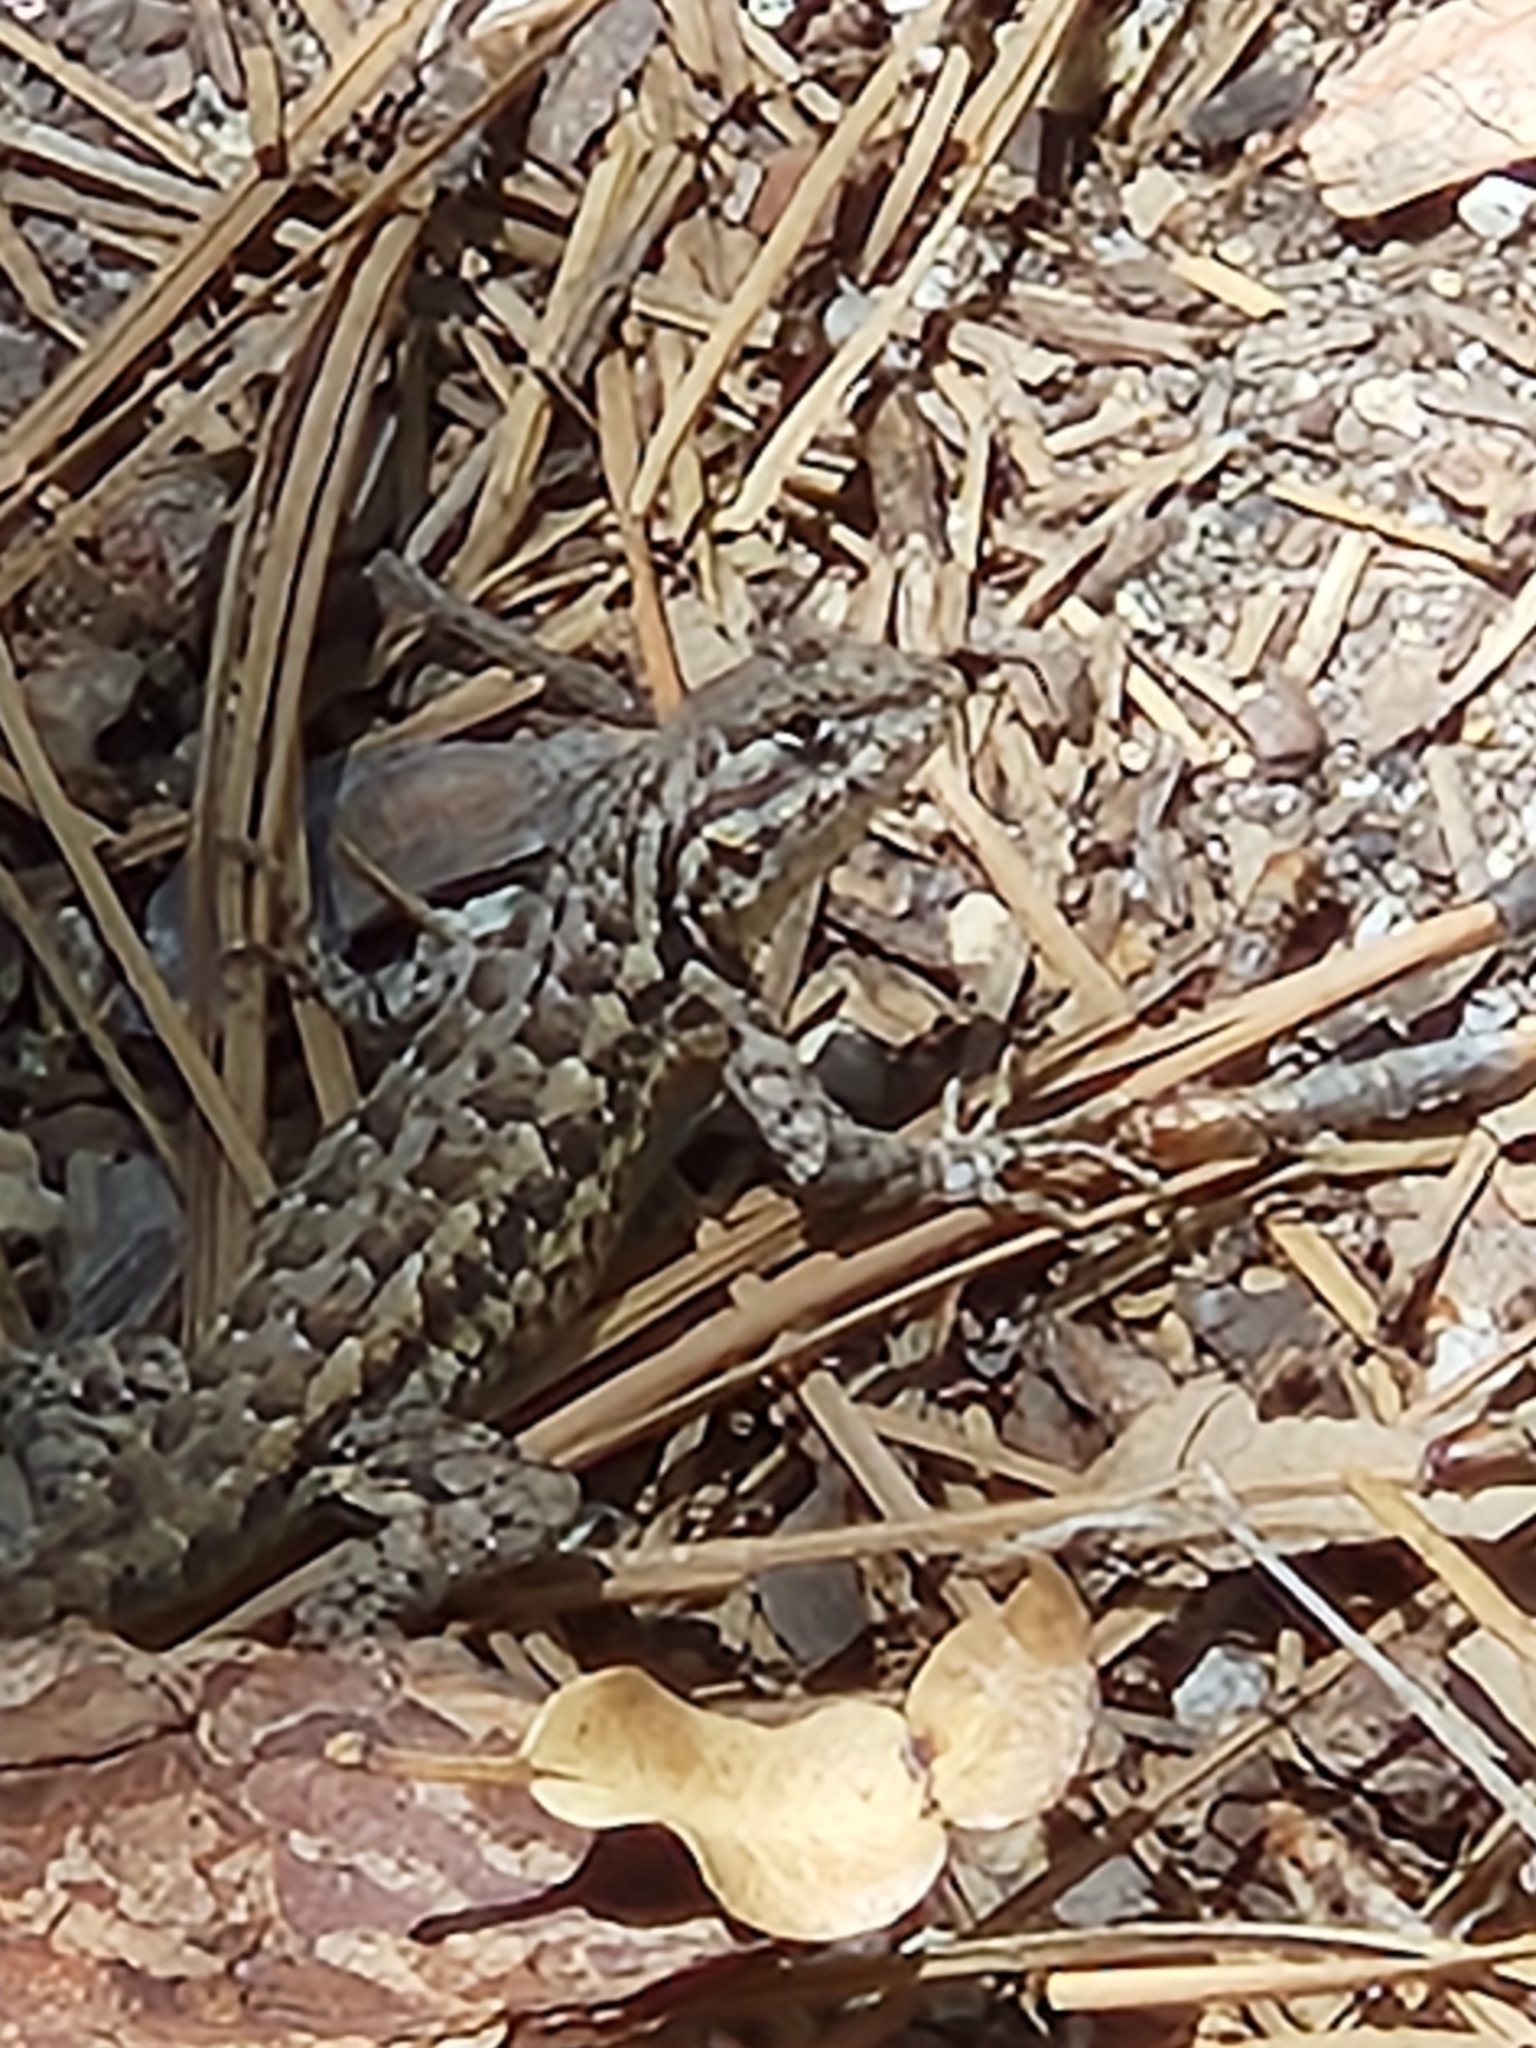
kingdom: Animalia
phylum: Chordata
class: Squamata
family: Phrynosomatidae
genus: Sceloporus
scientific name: Sceloporus graciosus
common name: Sagebrush lizard
